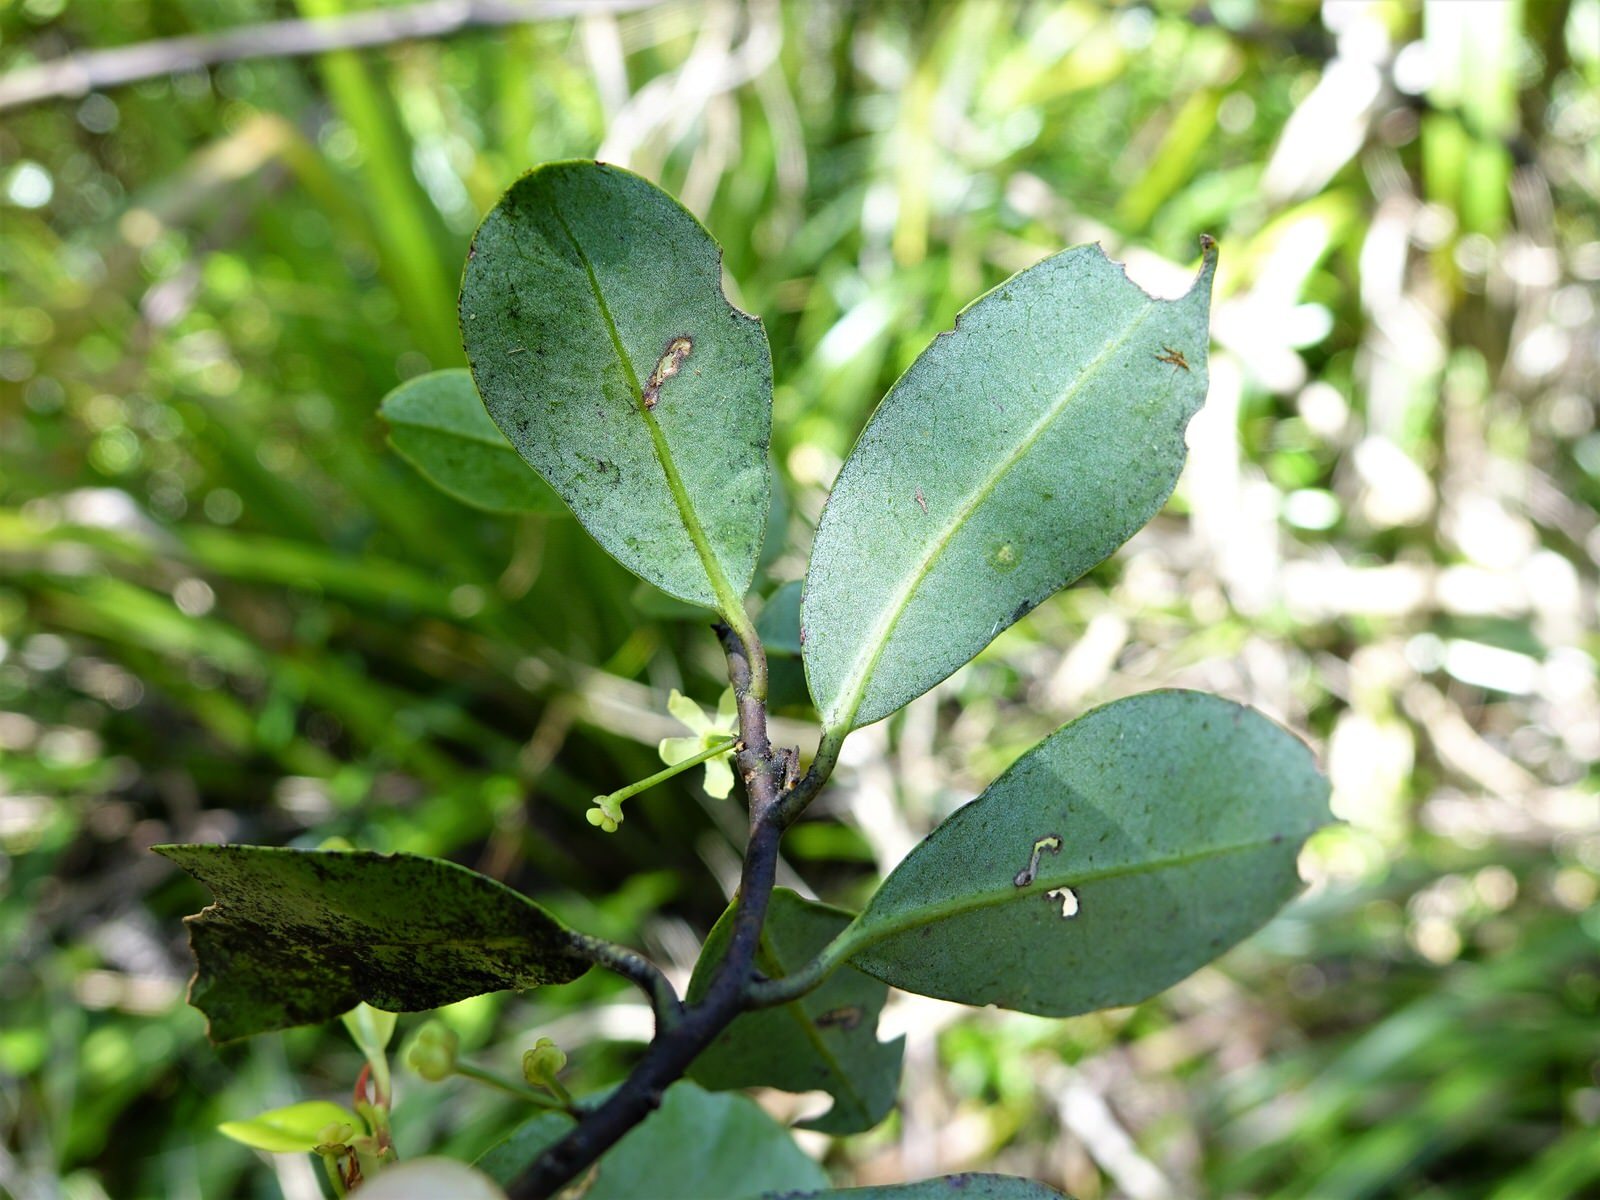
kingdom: Plantae
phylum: Tracheophyta
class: Magnoliopsida
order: Canellales
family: Winteraceae
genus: Pseudowintera
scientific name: Pseudowintera axillaris
